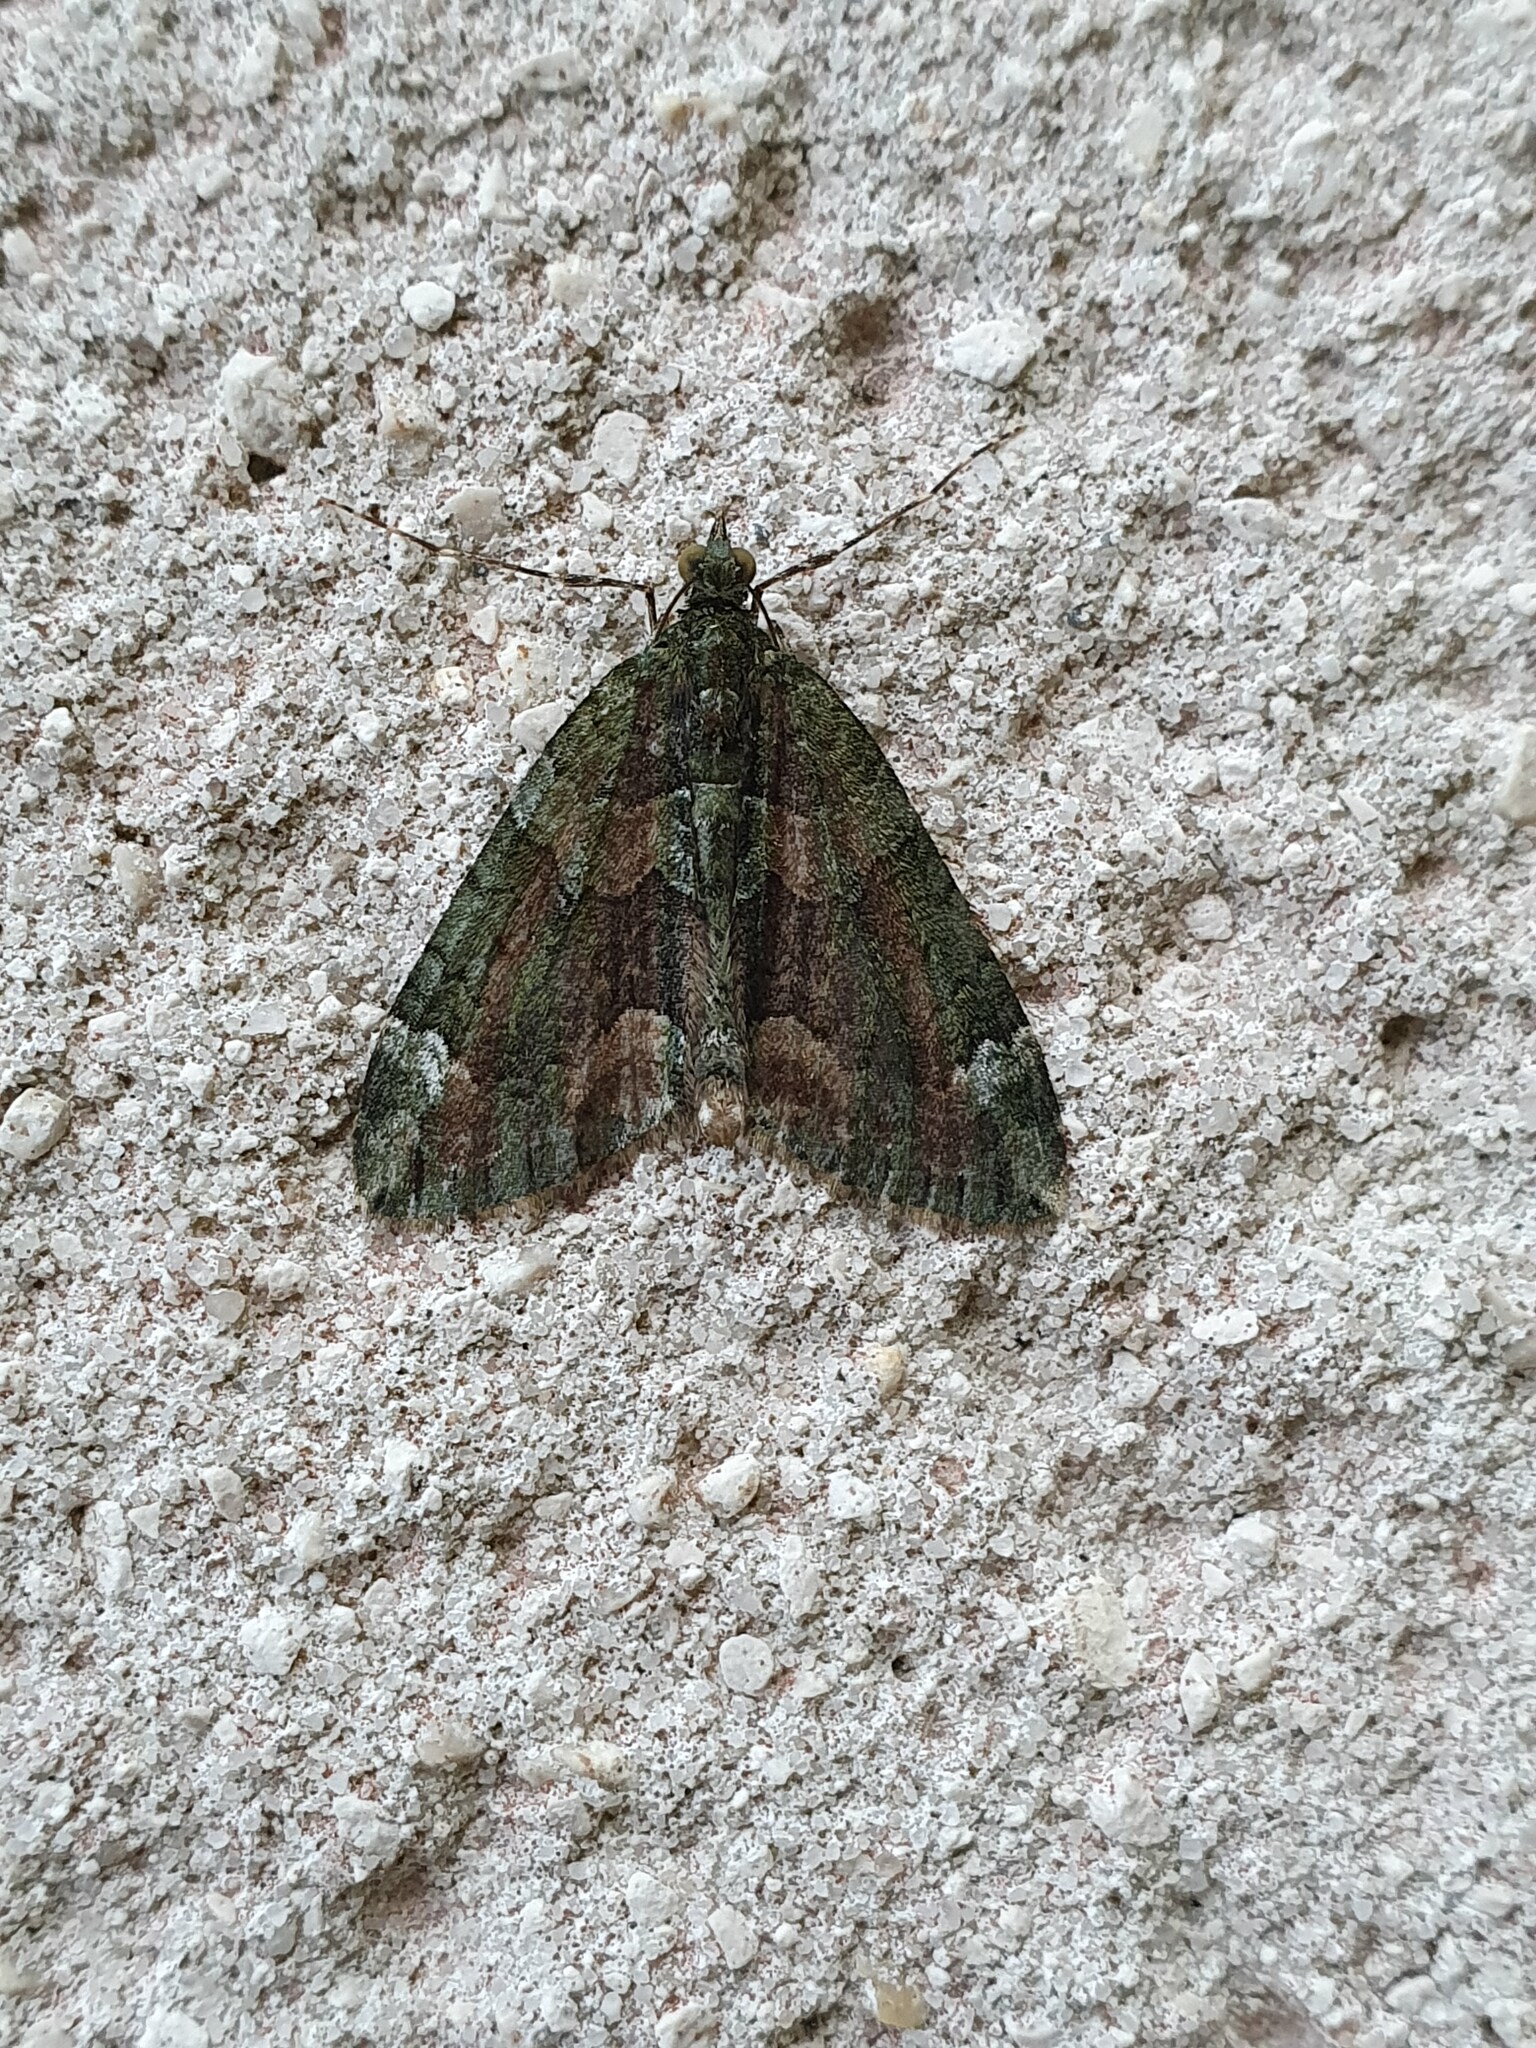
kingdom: Animalia
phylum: Arthropoda
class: Insecta
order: Lepidoptera
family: Geometridae
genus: Chloroclysta
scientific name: Chloroclysta siterata
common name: Red-green carpet
